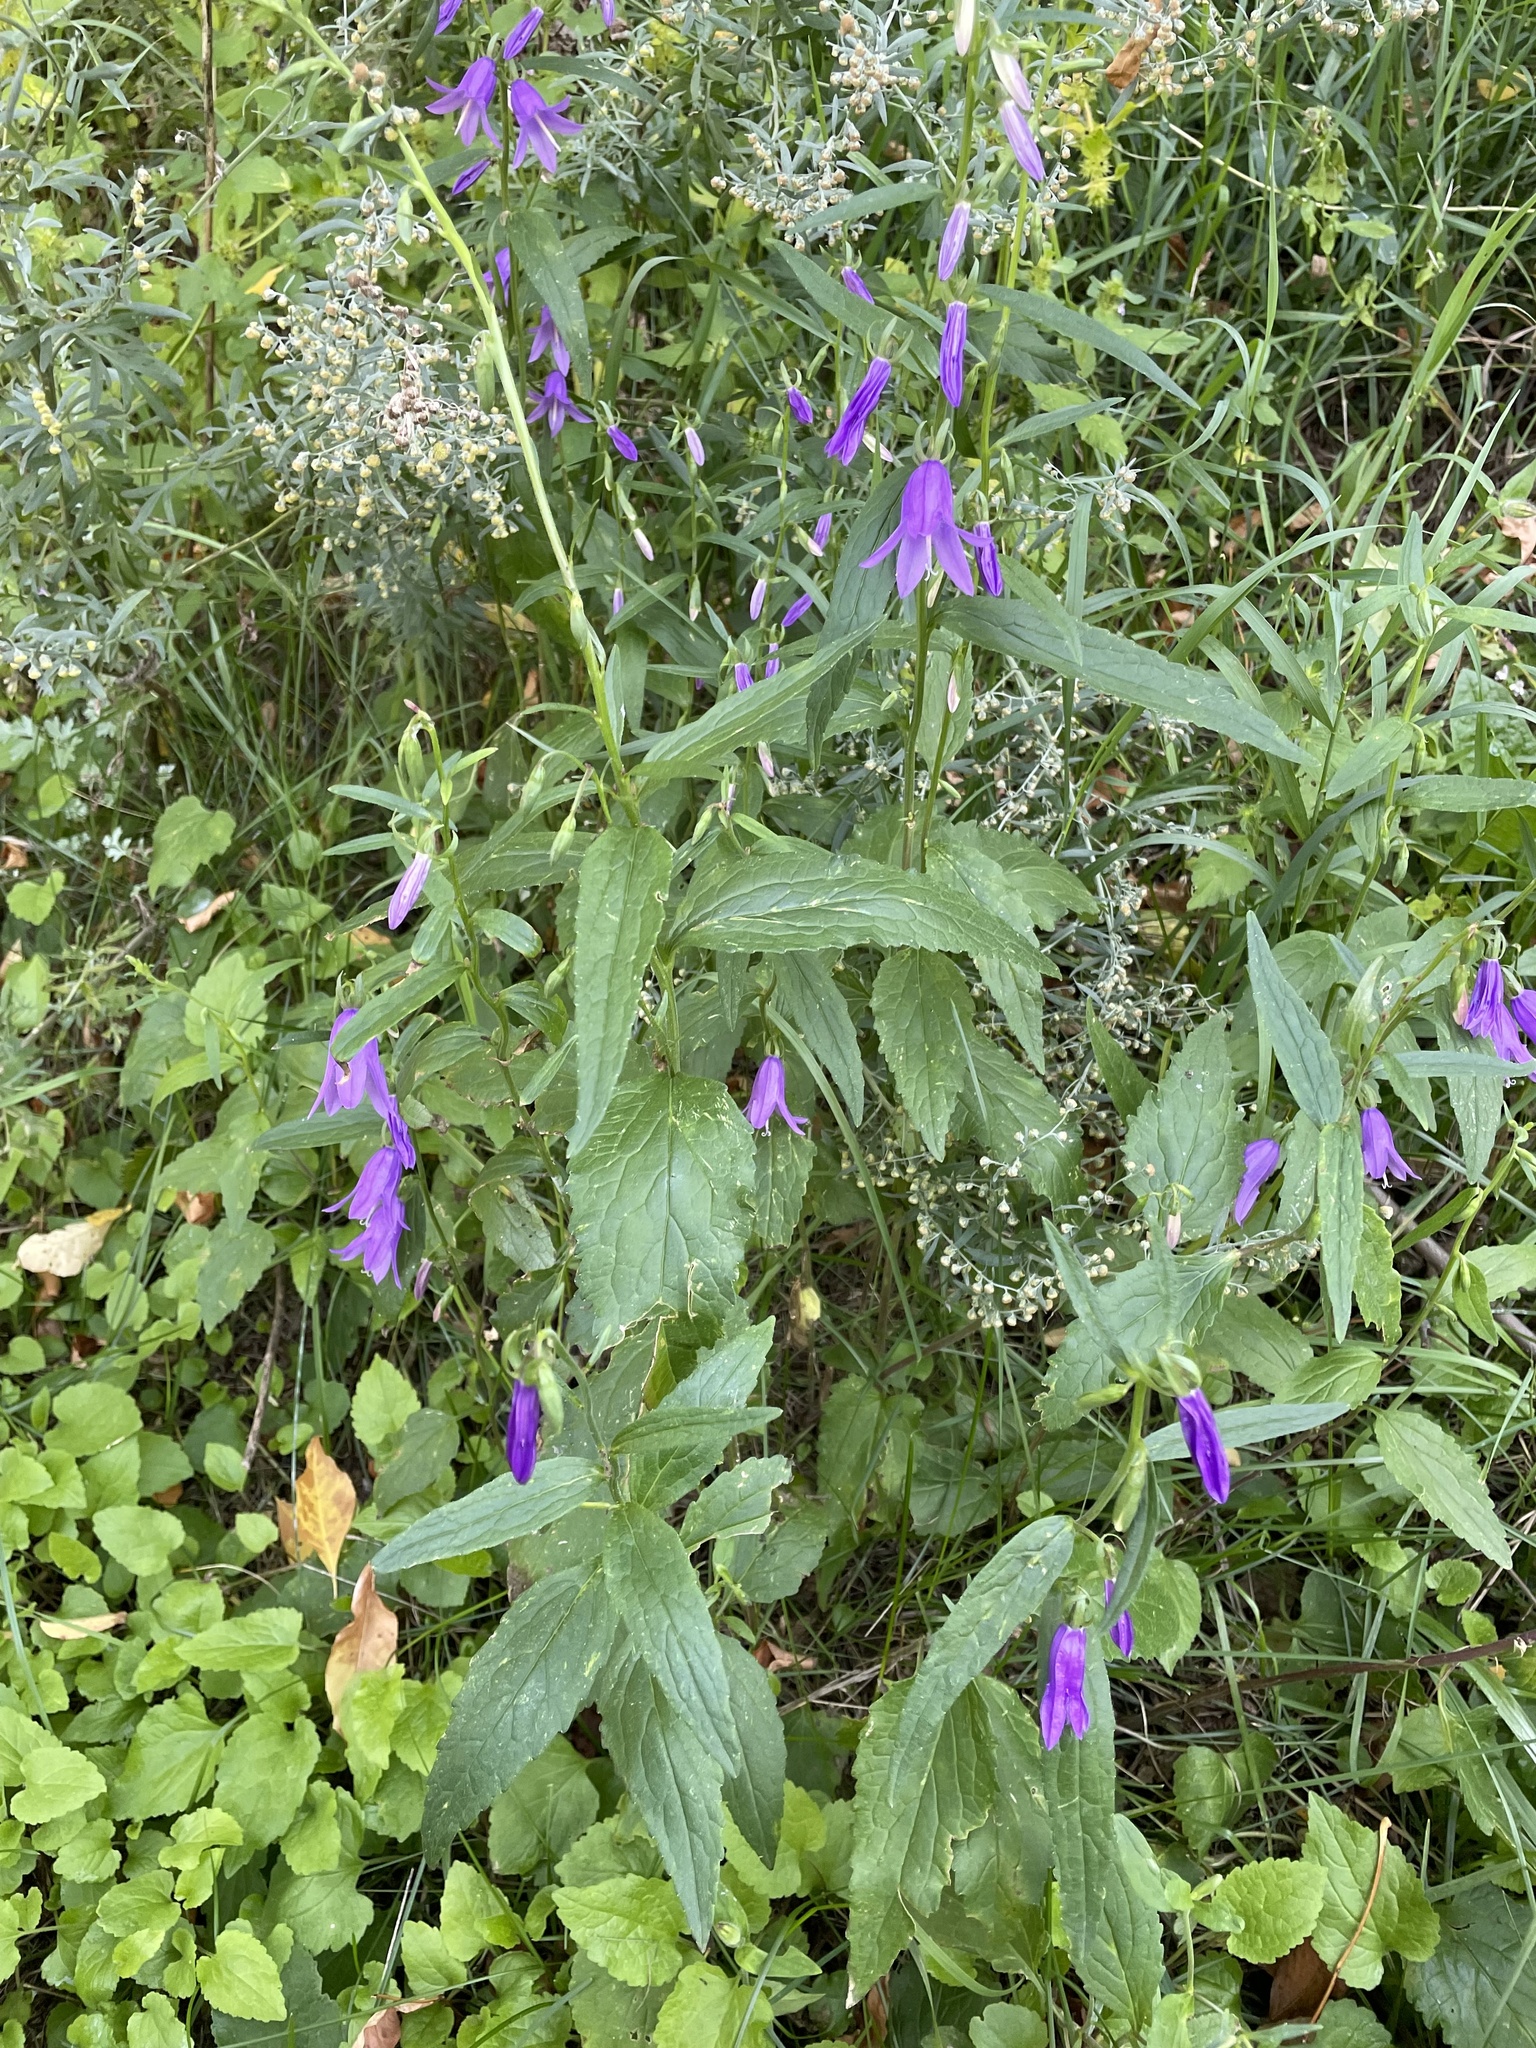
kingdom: Plantae
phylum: Tracheophyta
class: Magnoliopsida
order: Asterales
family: Campanulaceae
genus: Campanula
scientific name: Campanula rapunculoides
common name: Creeping bellflower
